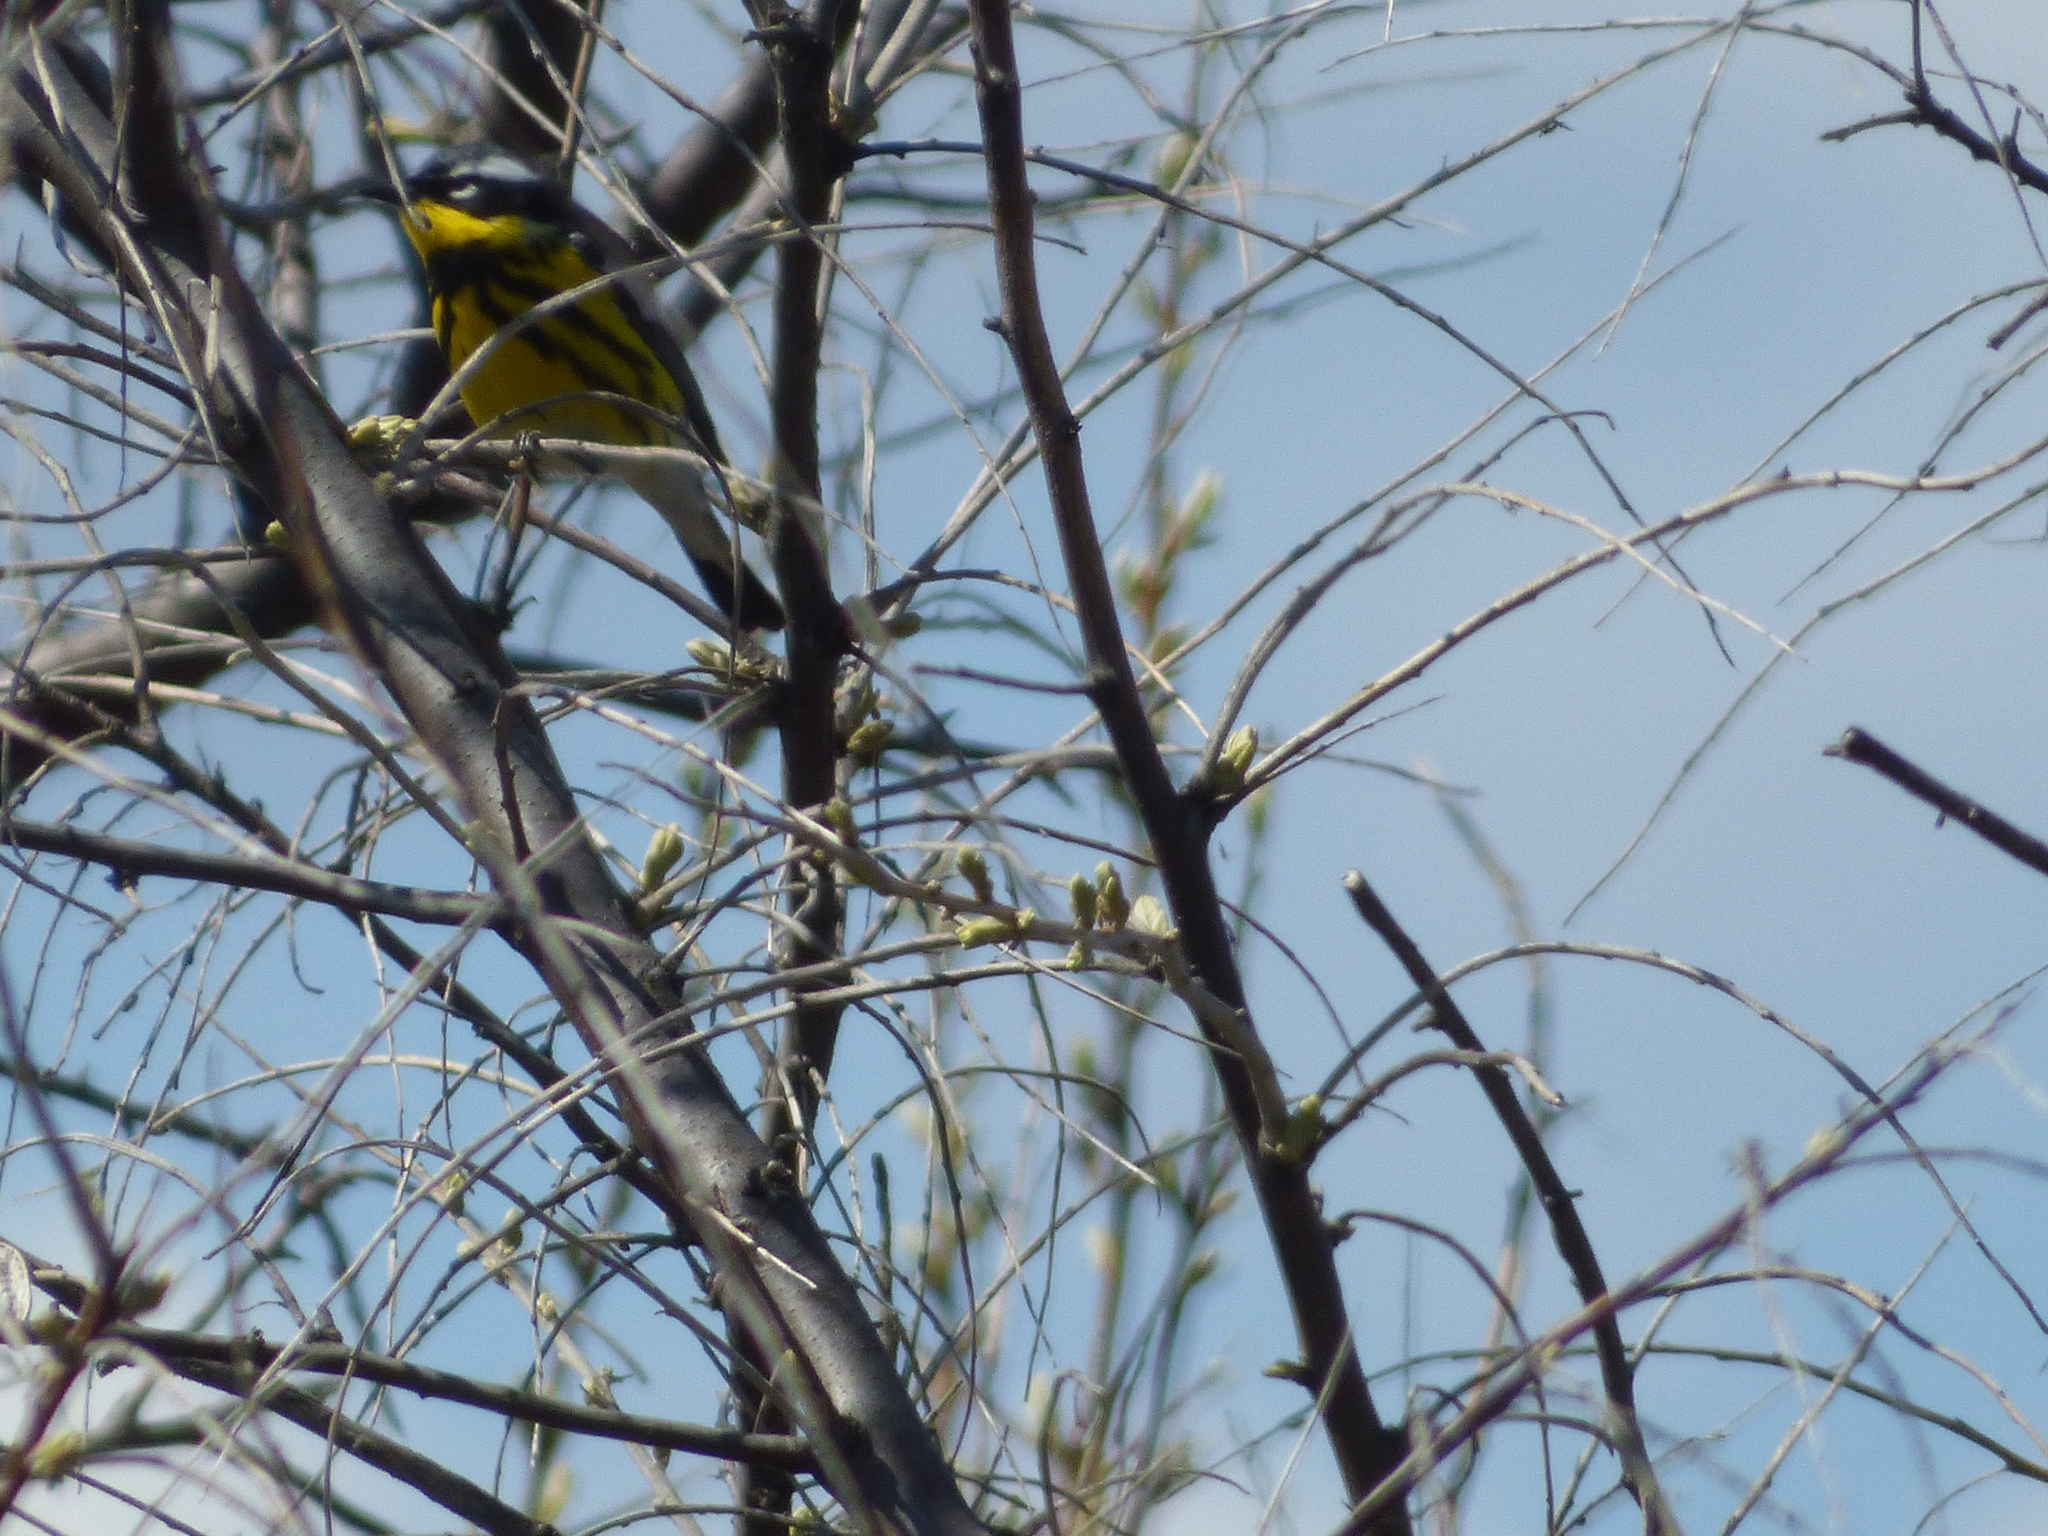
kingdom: Animalia
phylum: Chordata
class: Aves
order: Passeriformes
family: Parulidae
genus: Setophaga
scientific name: Setophaga magnolia
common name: Magnolia warbler
